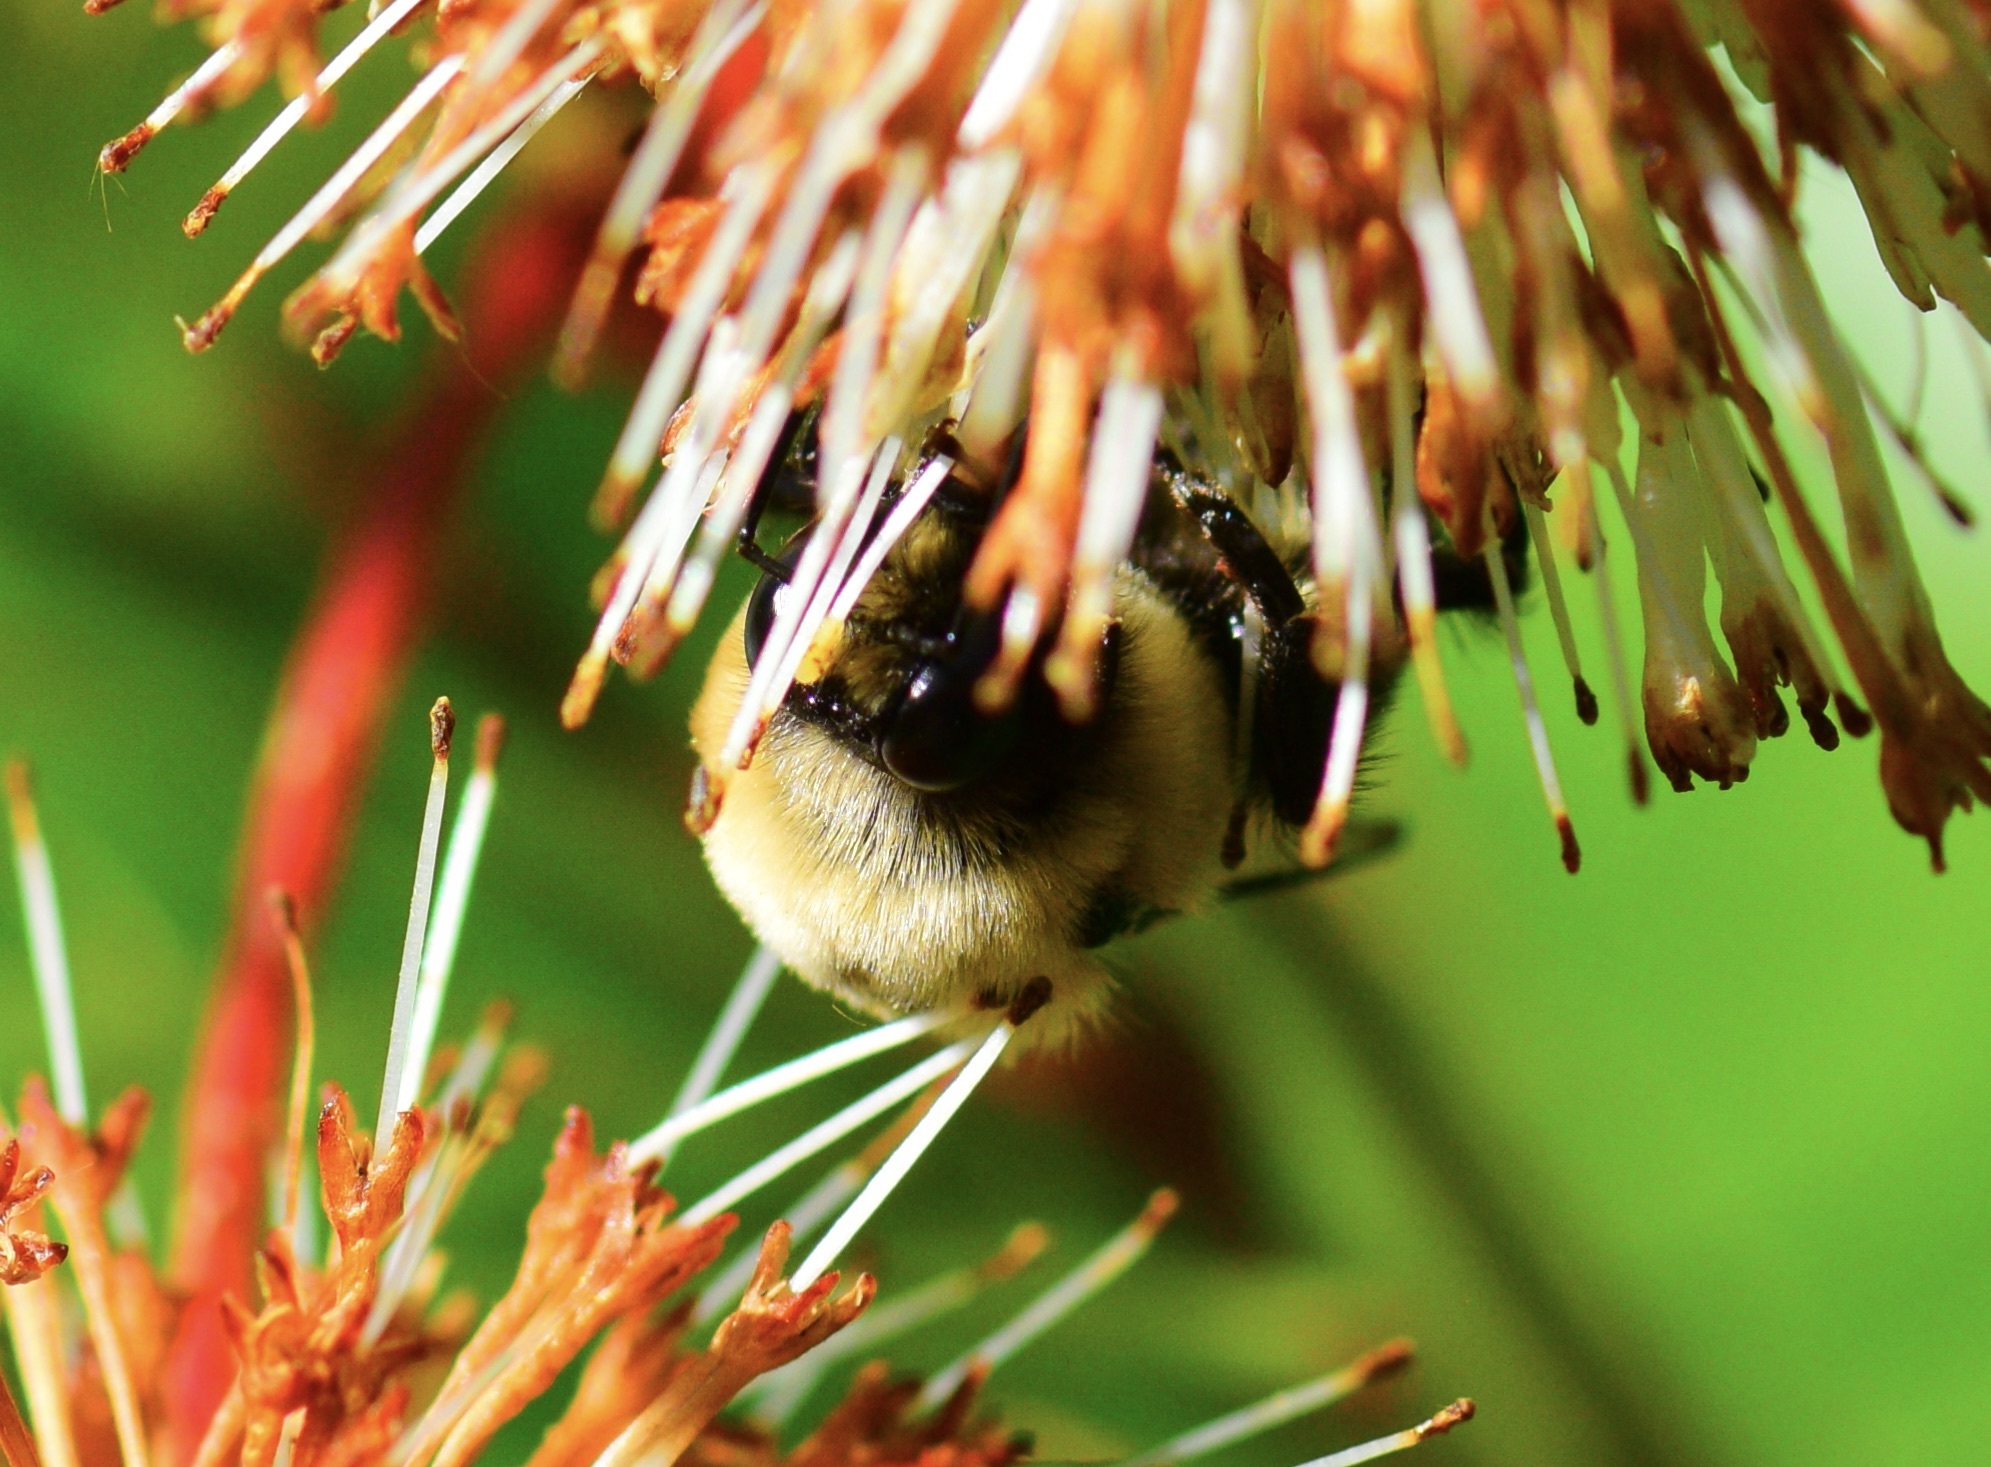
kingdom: Animalia
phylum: Arthropoda
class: Insecta
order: Hymenoptera
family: Apidae
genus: Bombus
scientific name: Bombus griseocollis
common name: Brown-belted bumble bee
